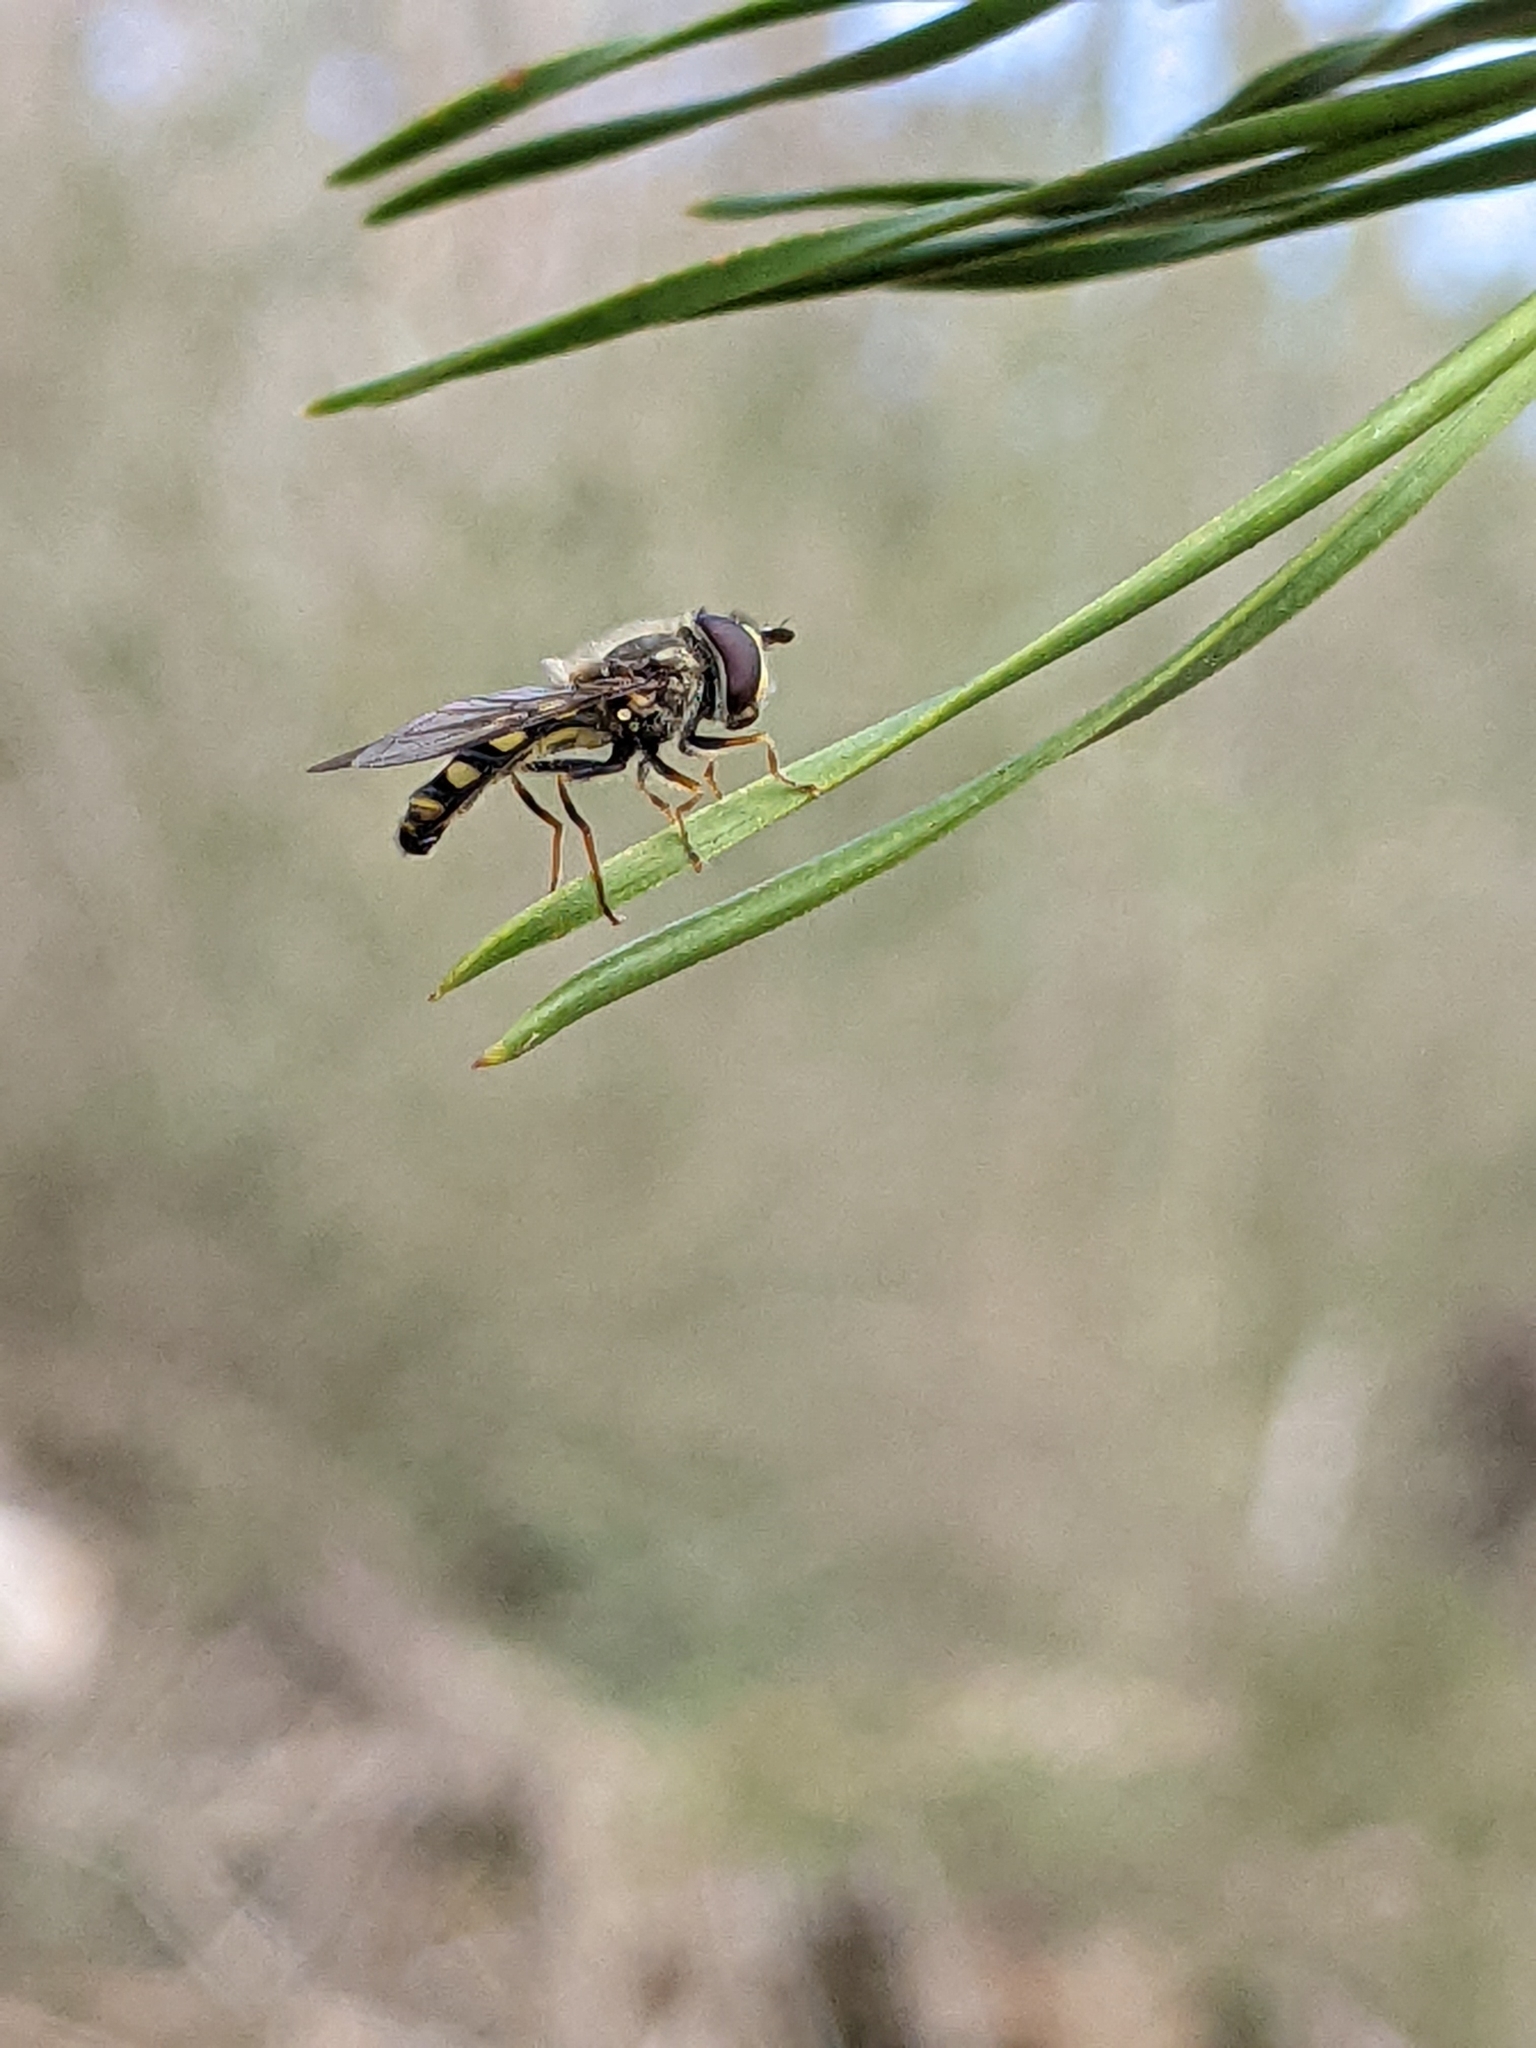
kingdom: Animalia
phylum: Arthropoda
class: Insecta
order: Diptera
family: Syrphidae
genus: Eupeodes
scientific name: Eupeodes
